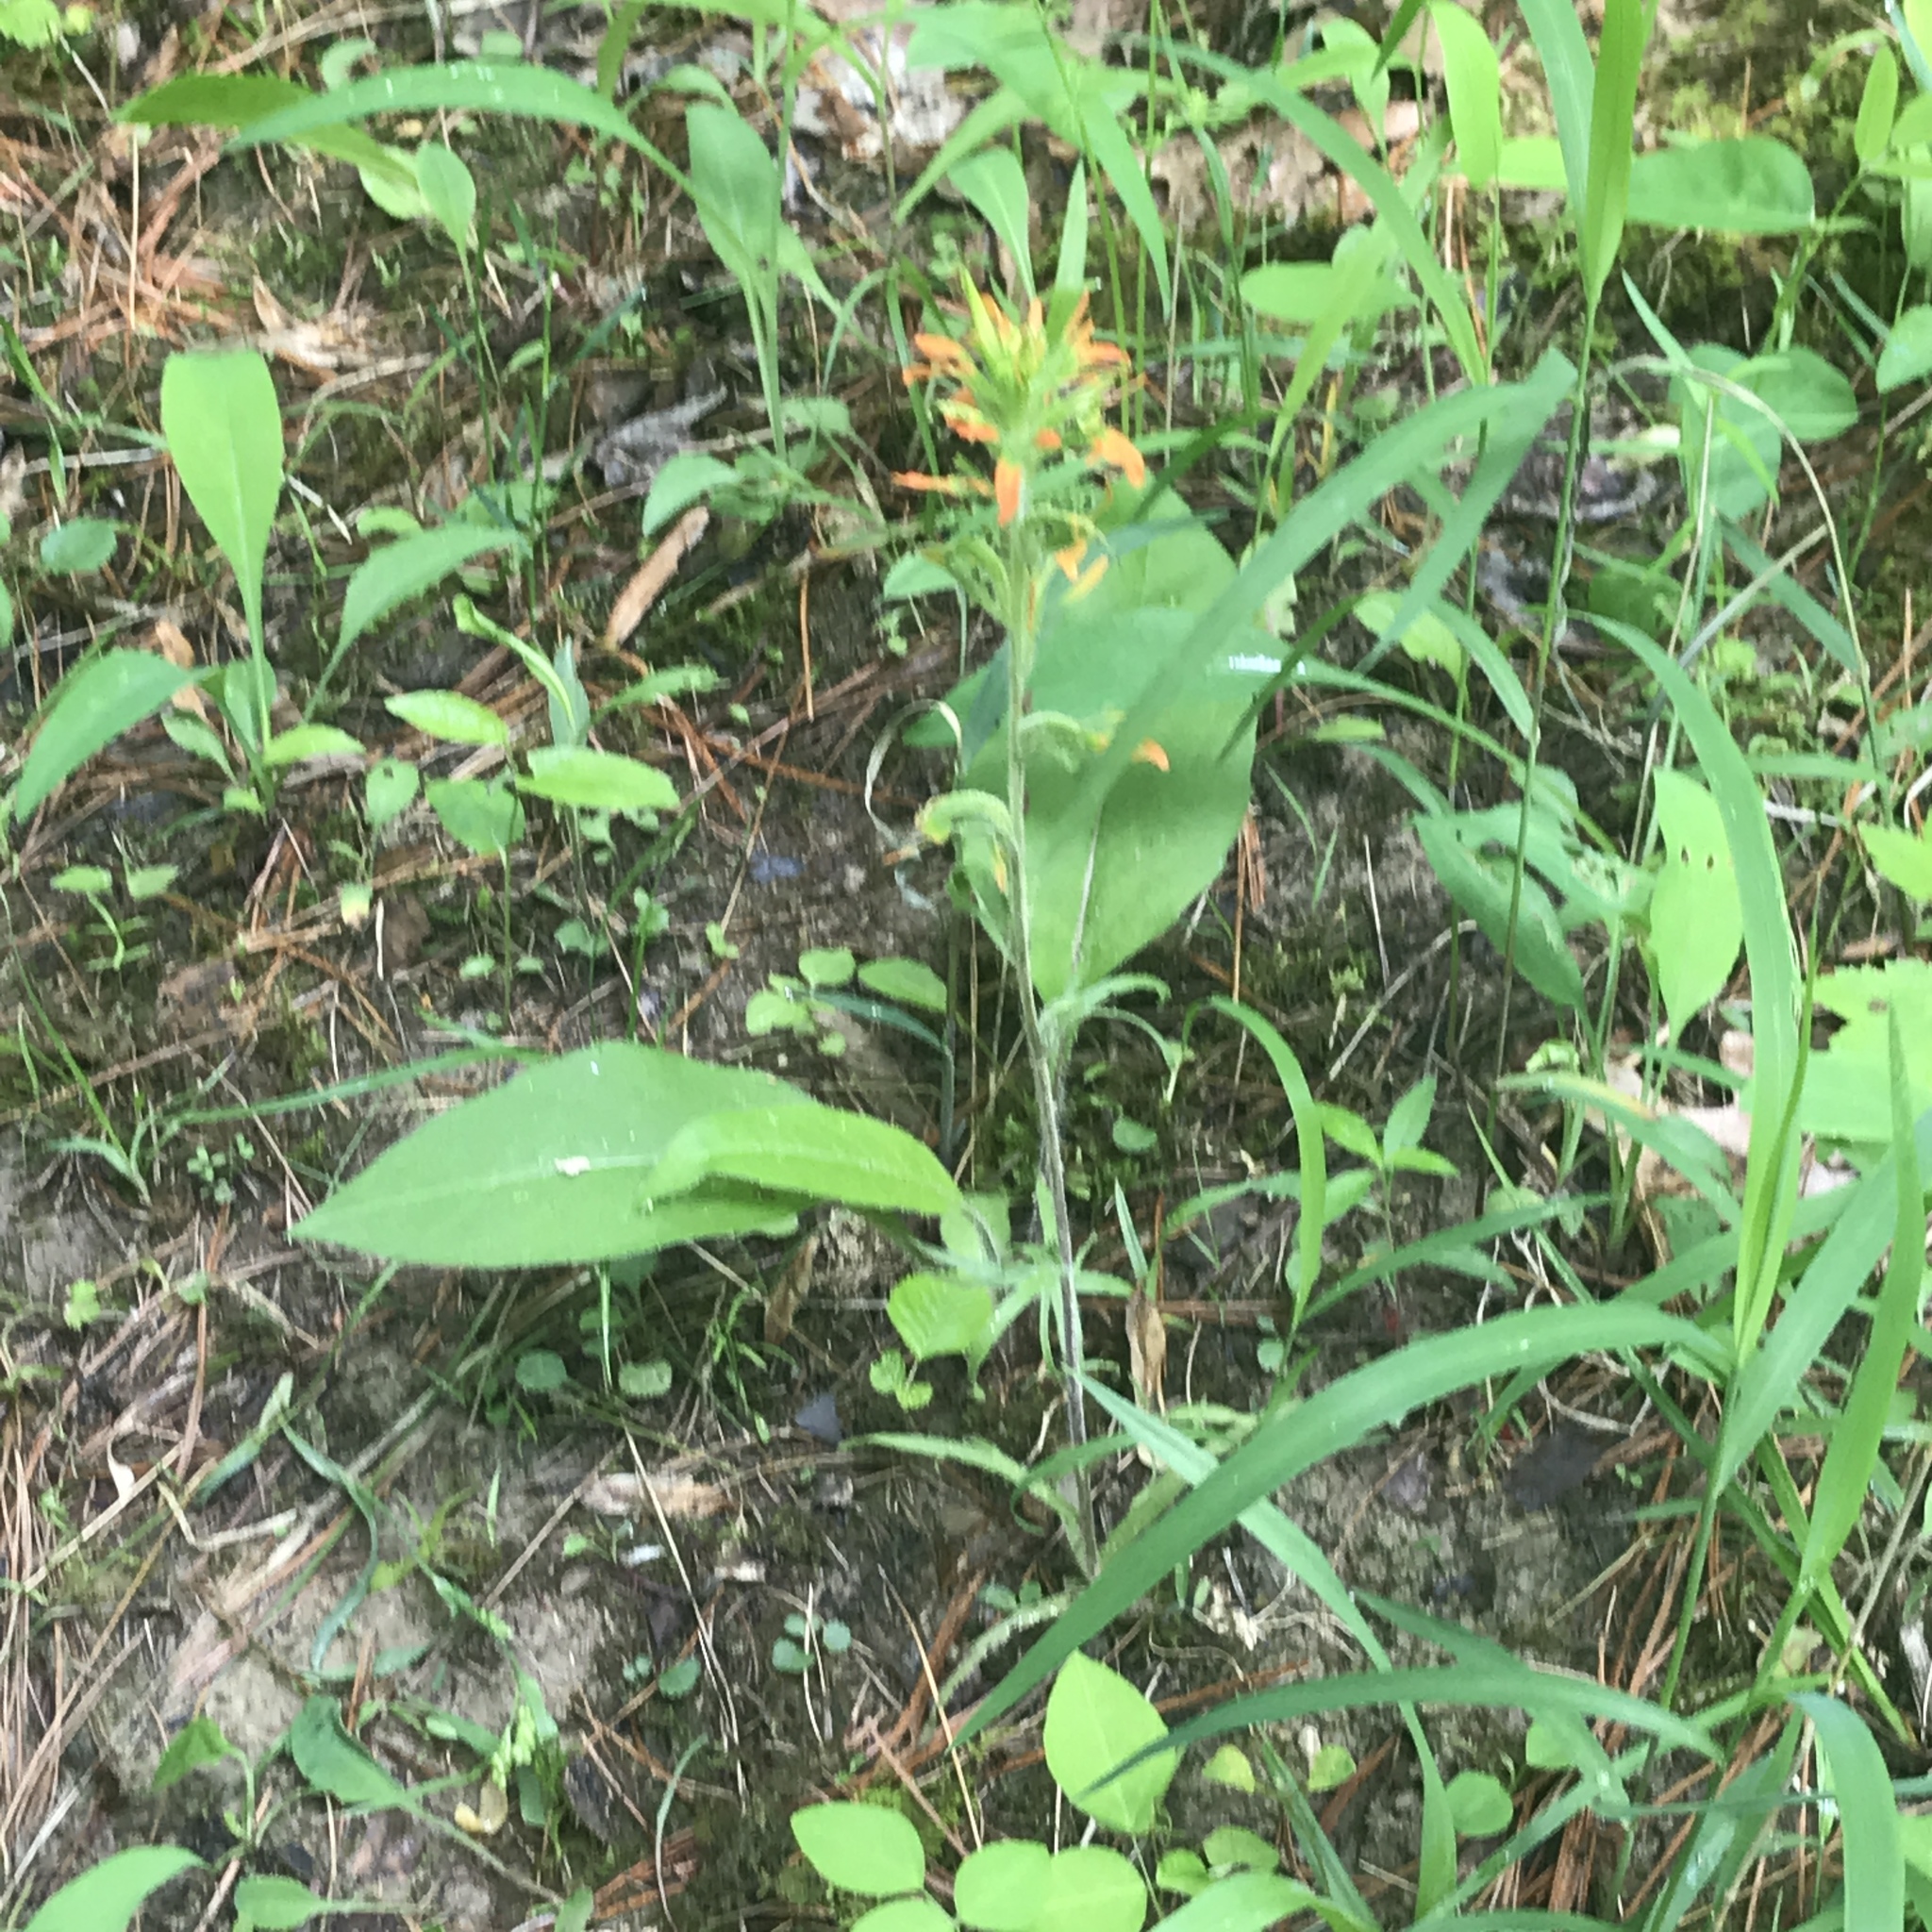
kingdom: Plantae
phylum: Tracheophyta
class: Magnoliopsida
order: Lamiales
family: Orobanchaceae
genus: Castilleja
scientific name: Castilleja coccinea
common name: Scarlet paintbrush
